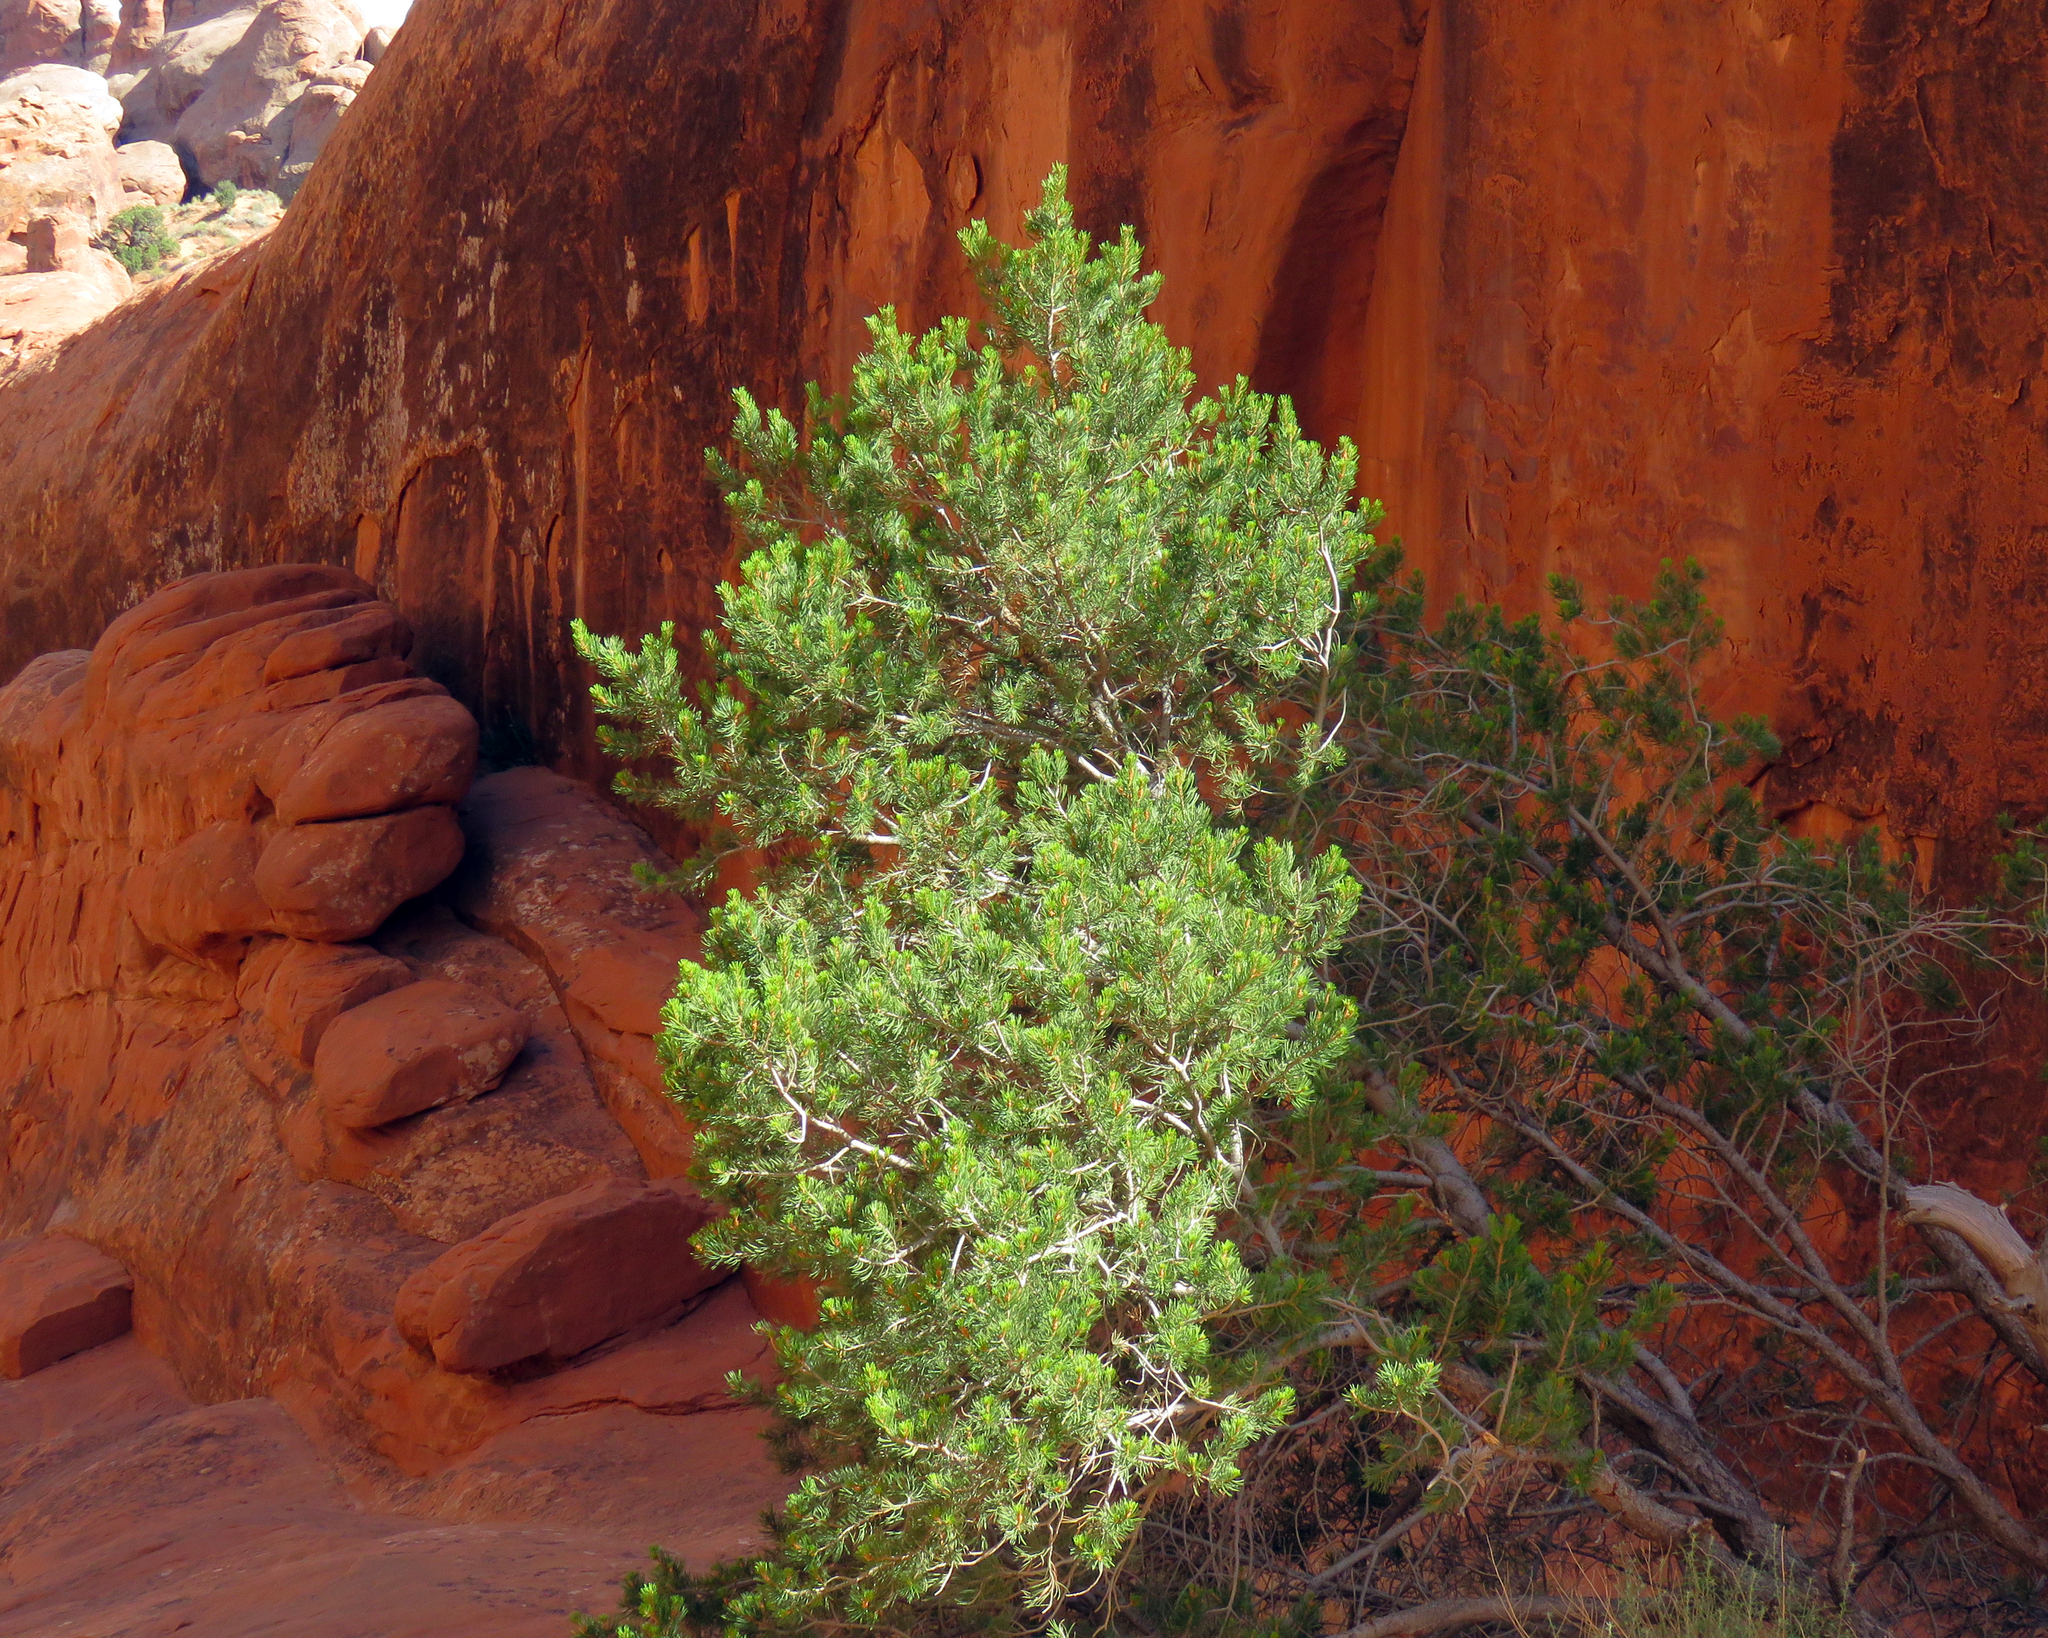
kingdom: Plantae
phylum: Tracheophyta
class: Pinopsida
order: Pinales
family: Pinaceae
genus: Pinus
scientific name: Pinus edulis
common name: Colorado pinyon
